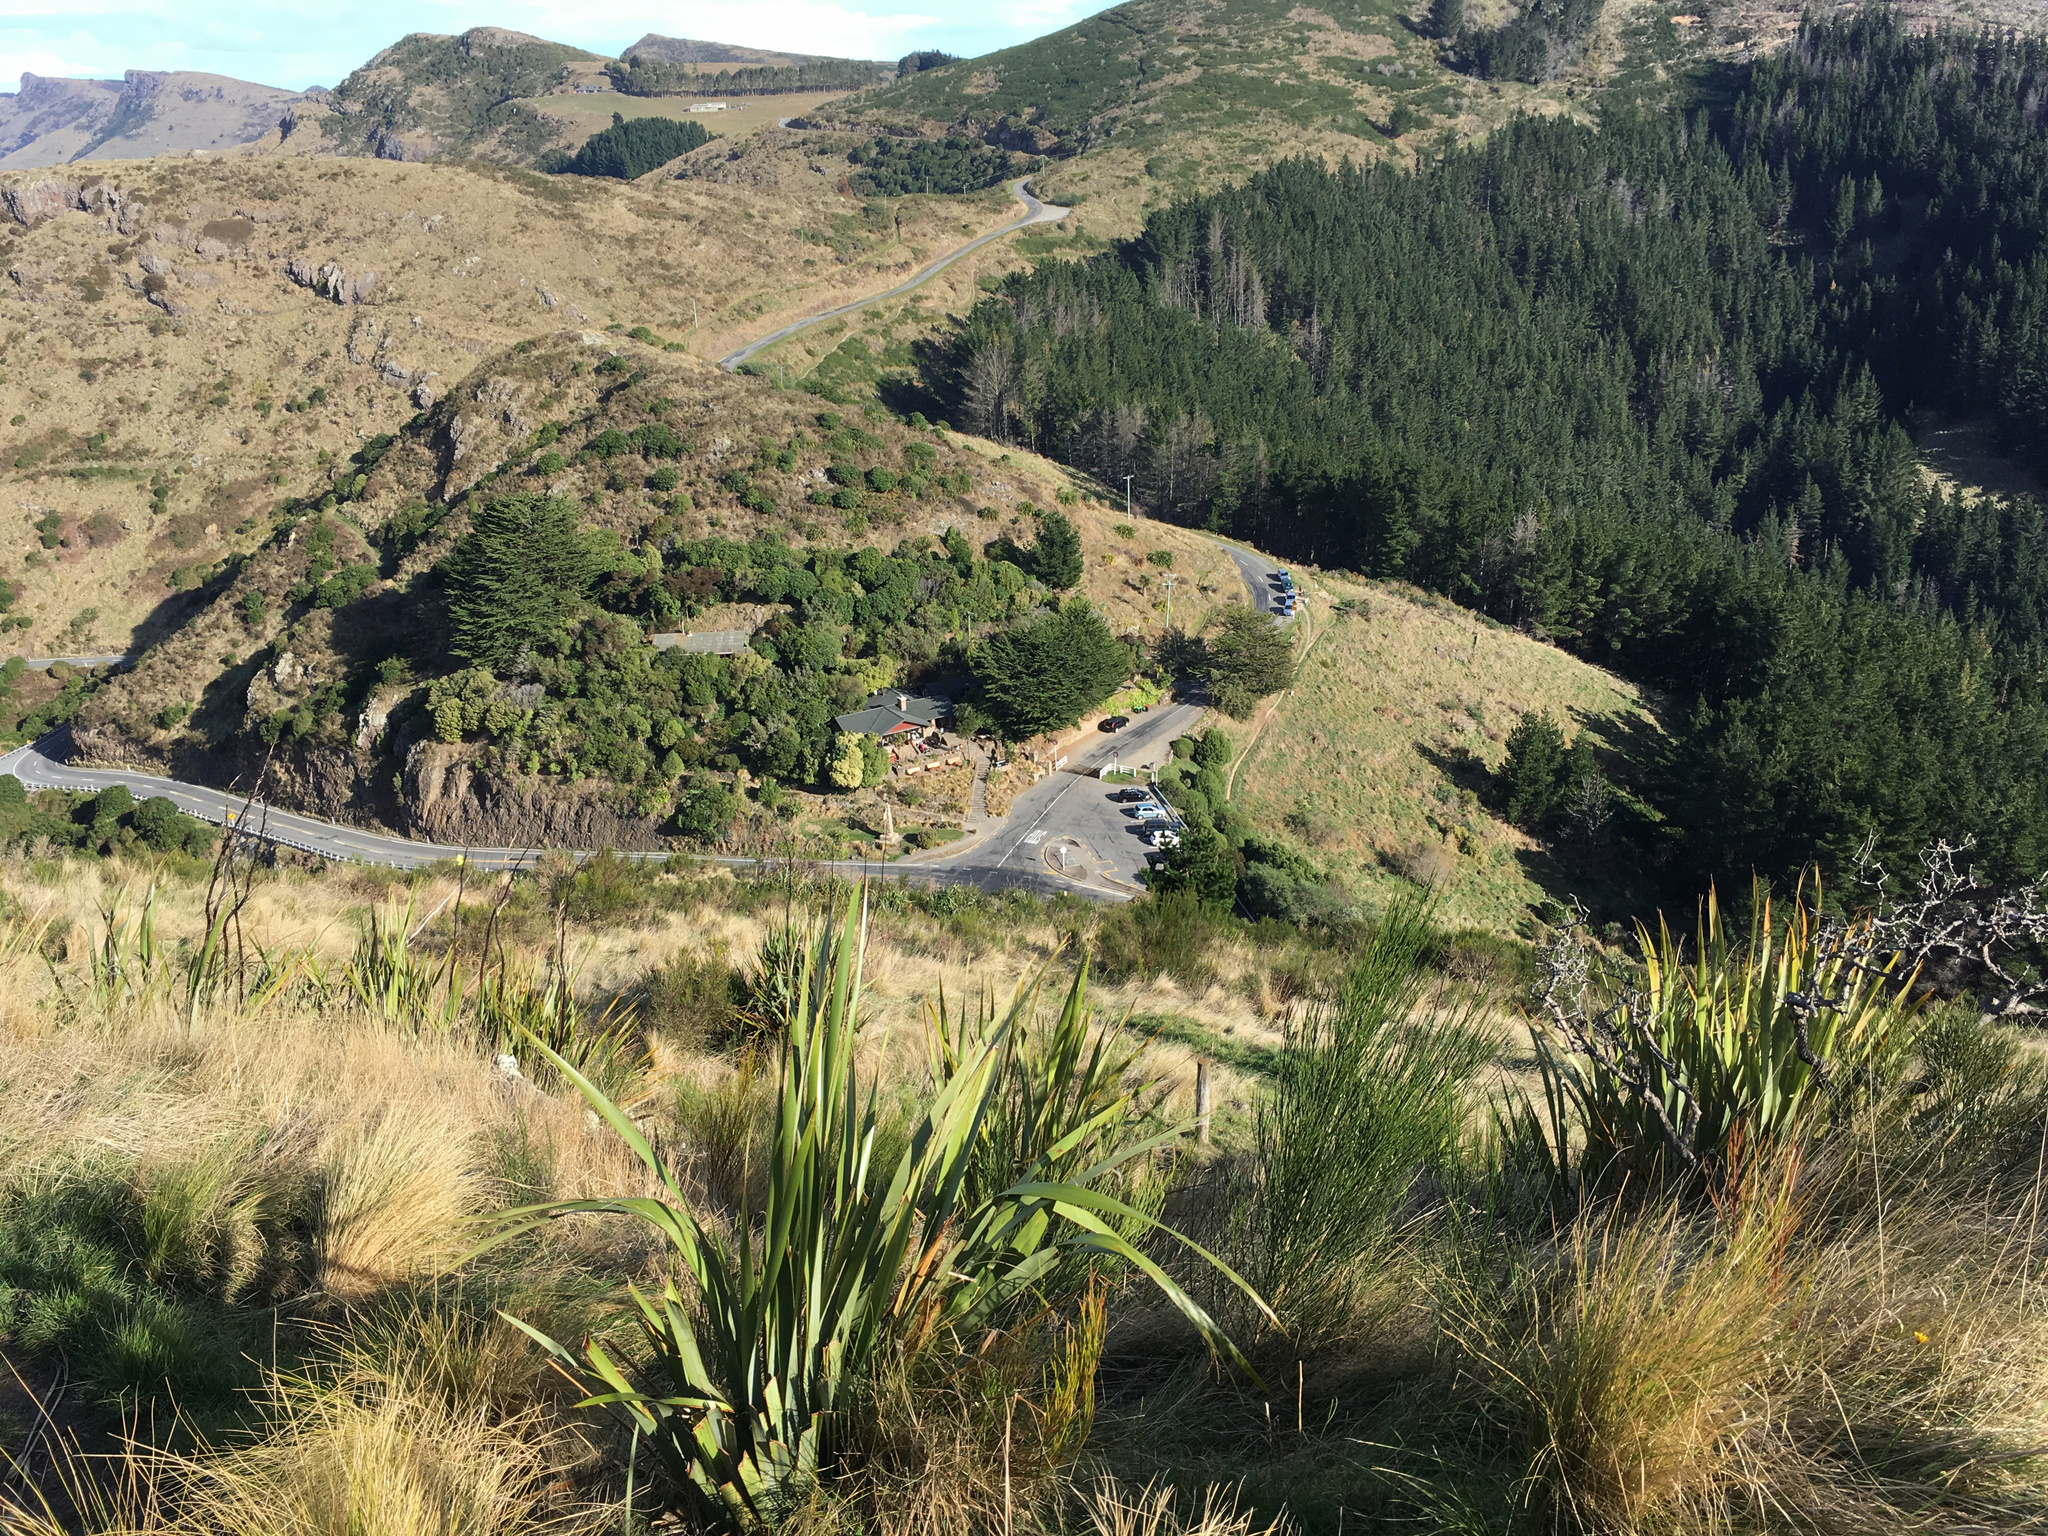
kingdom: Plantae
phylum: Tracheophyta
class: Liliopsida
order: Asparagales
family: Asphodelaceae
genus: Phormium
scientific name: Phormium tenax
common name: New zealand flax
